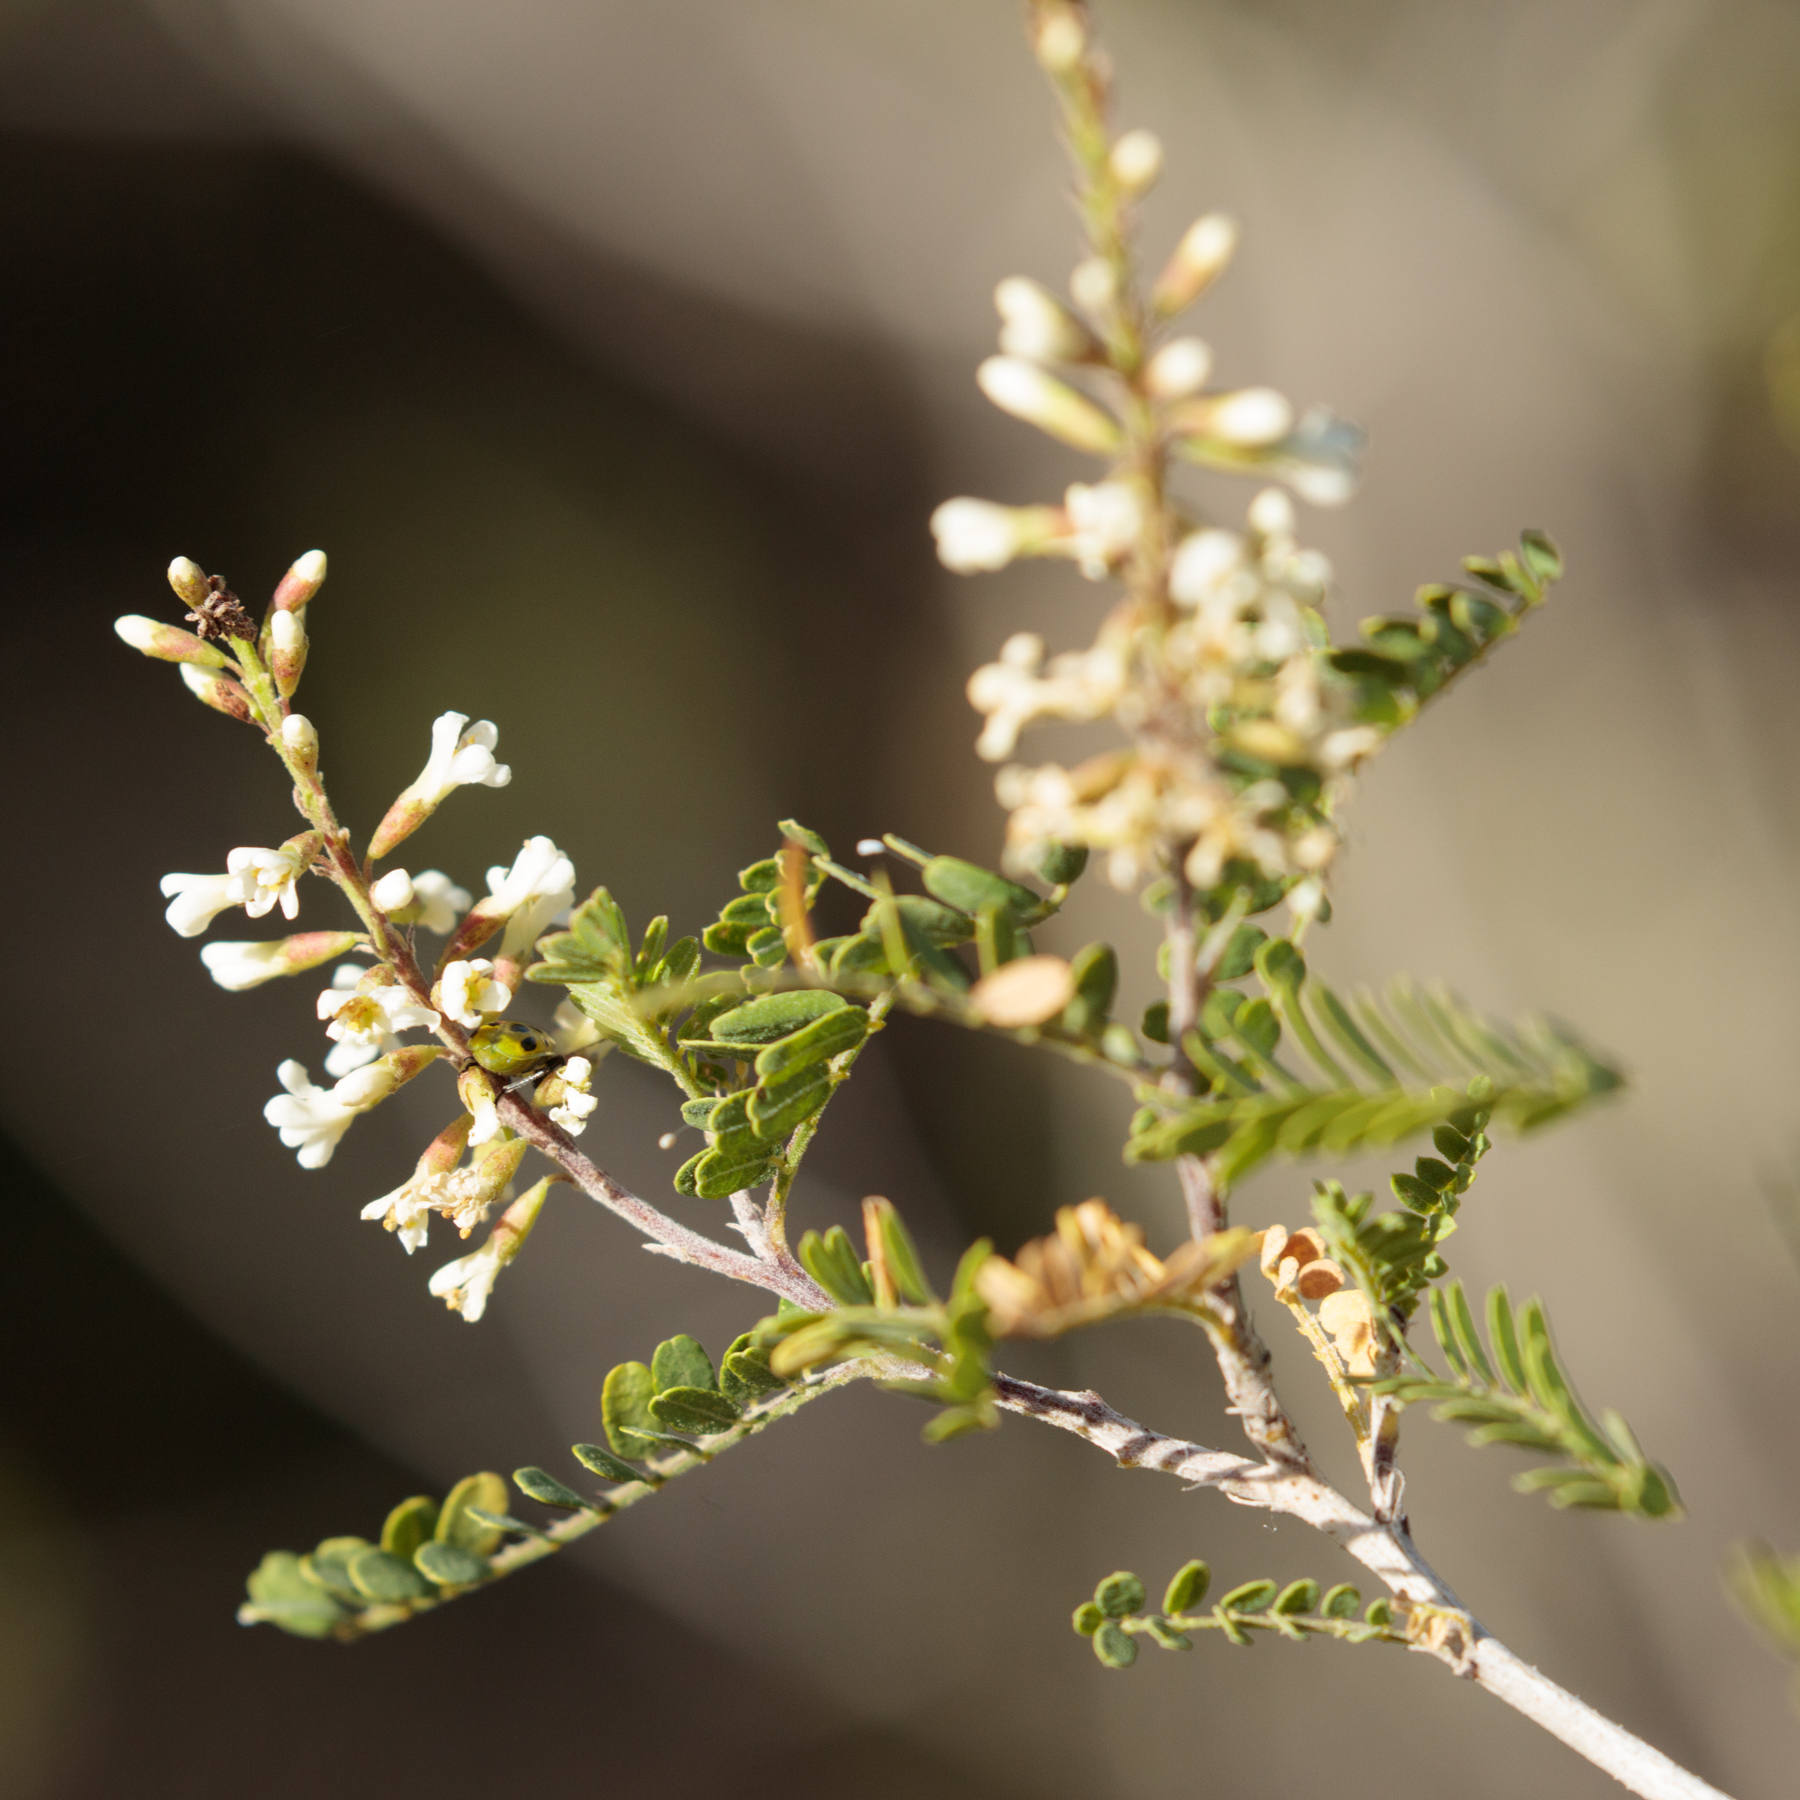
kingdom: Plantae
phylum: Tracheophyta
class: Magnoliopsida
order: Fabales
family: Fabaceae
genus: Eysenhardtia
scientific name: Eysenhardtia texana
